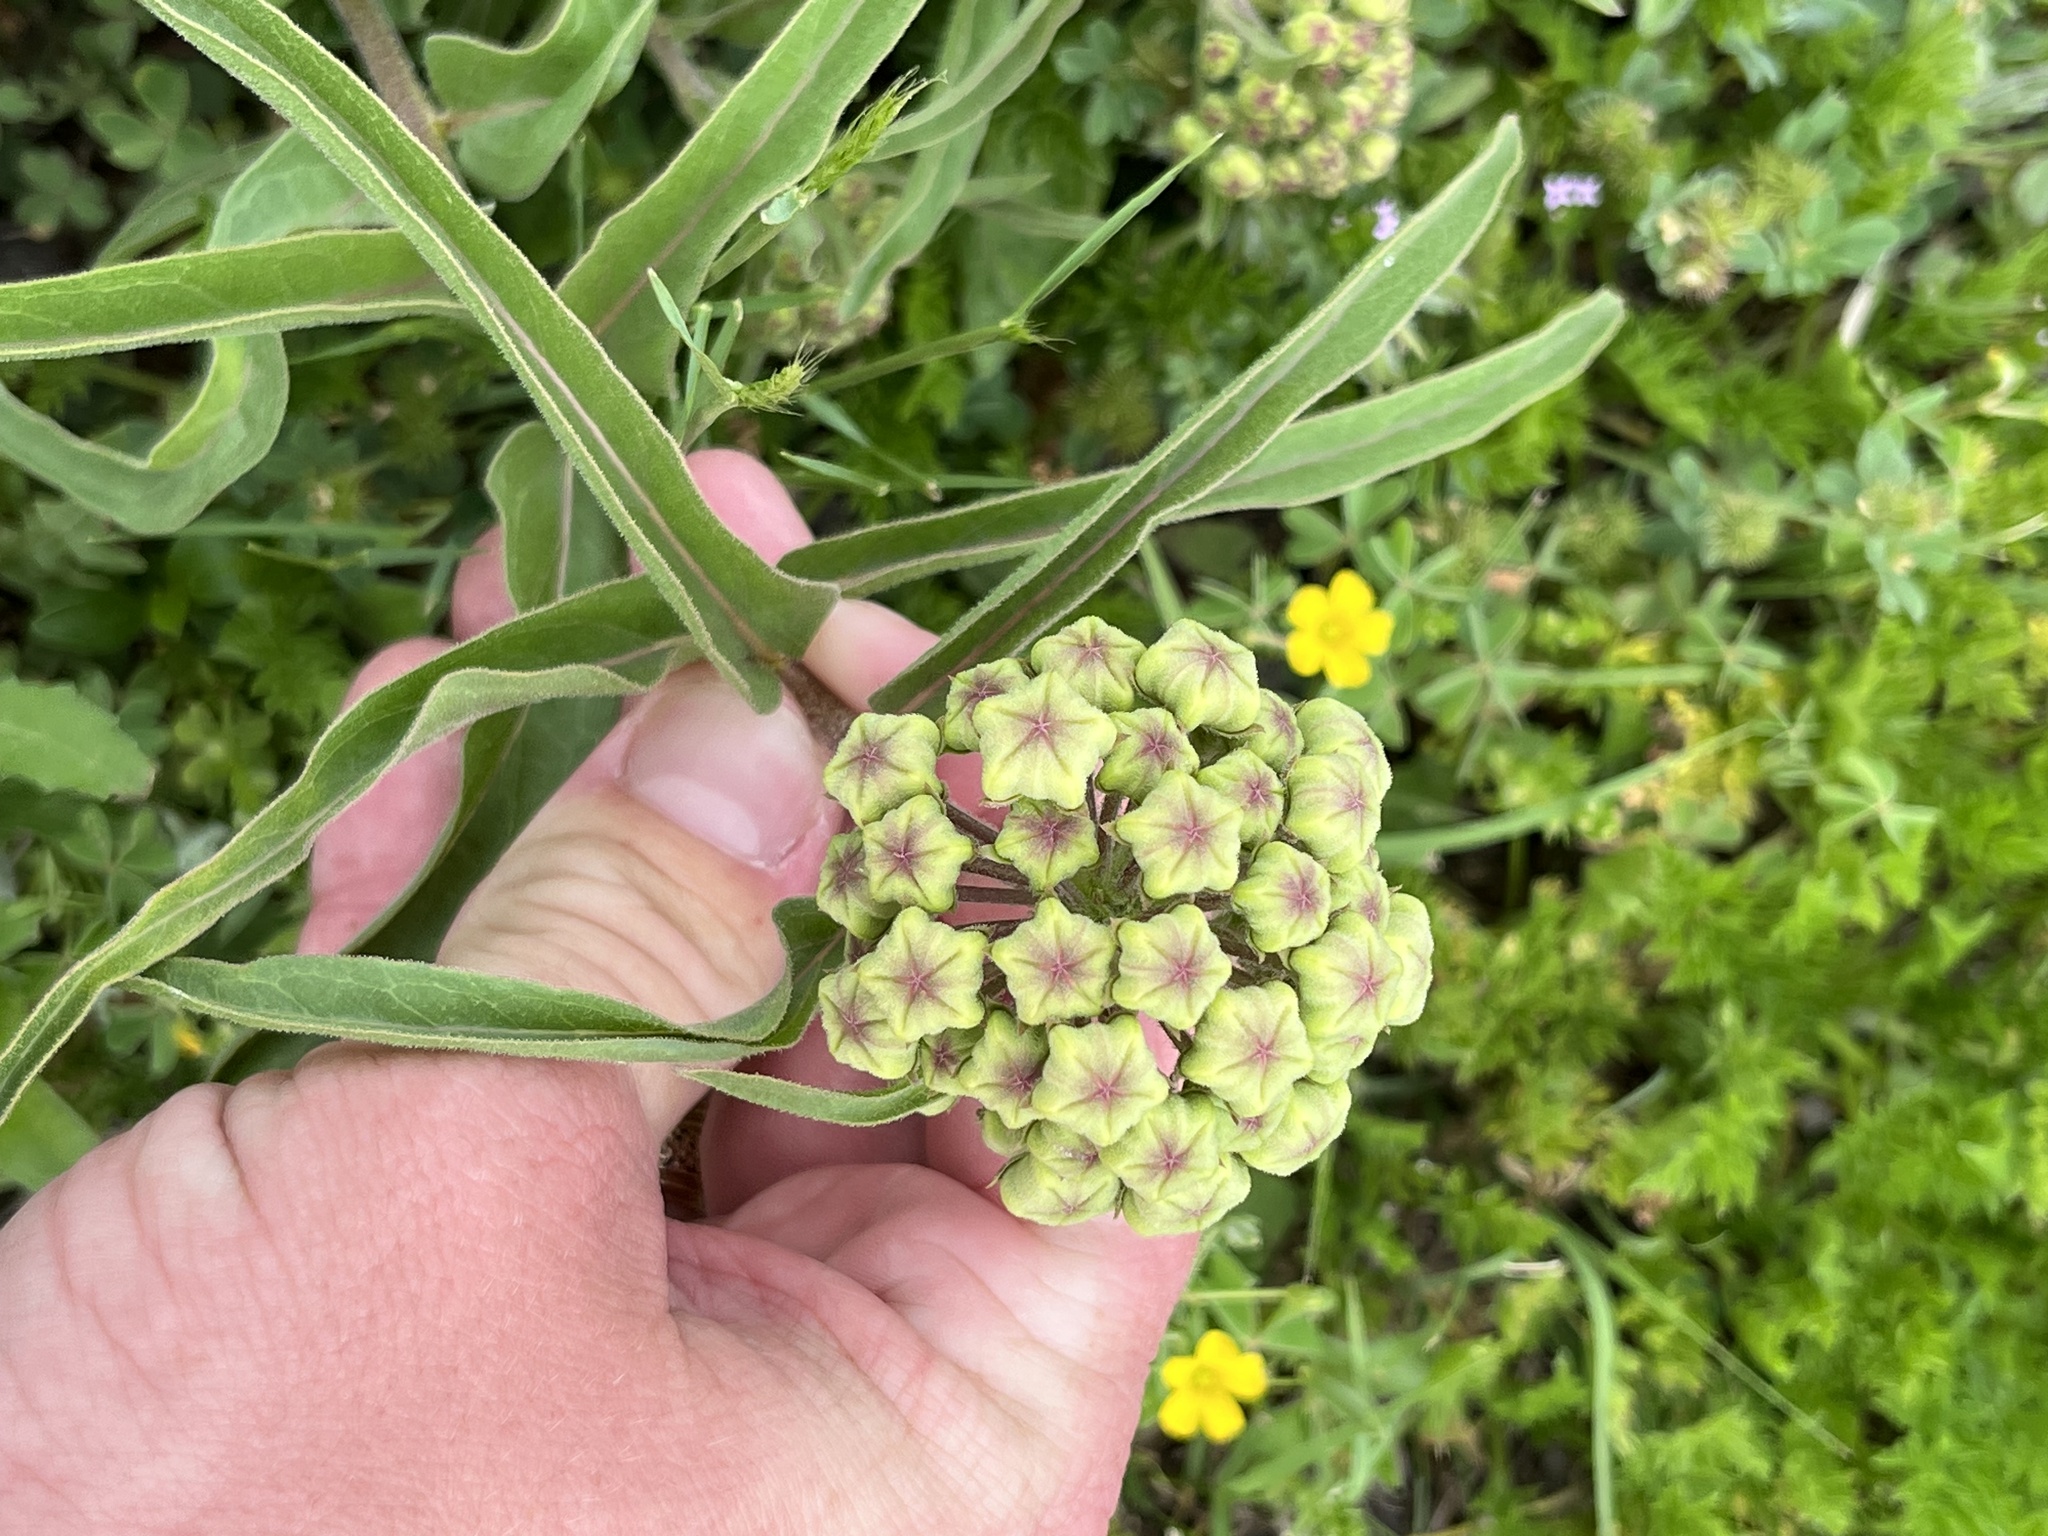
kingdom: Plantae
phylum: Tracheophyta
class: Magnoliopsida
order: Gentianales
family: Apocynaceae
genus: Asclepias
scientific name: Asclepias asperula
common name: Antelope horns
